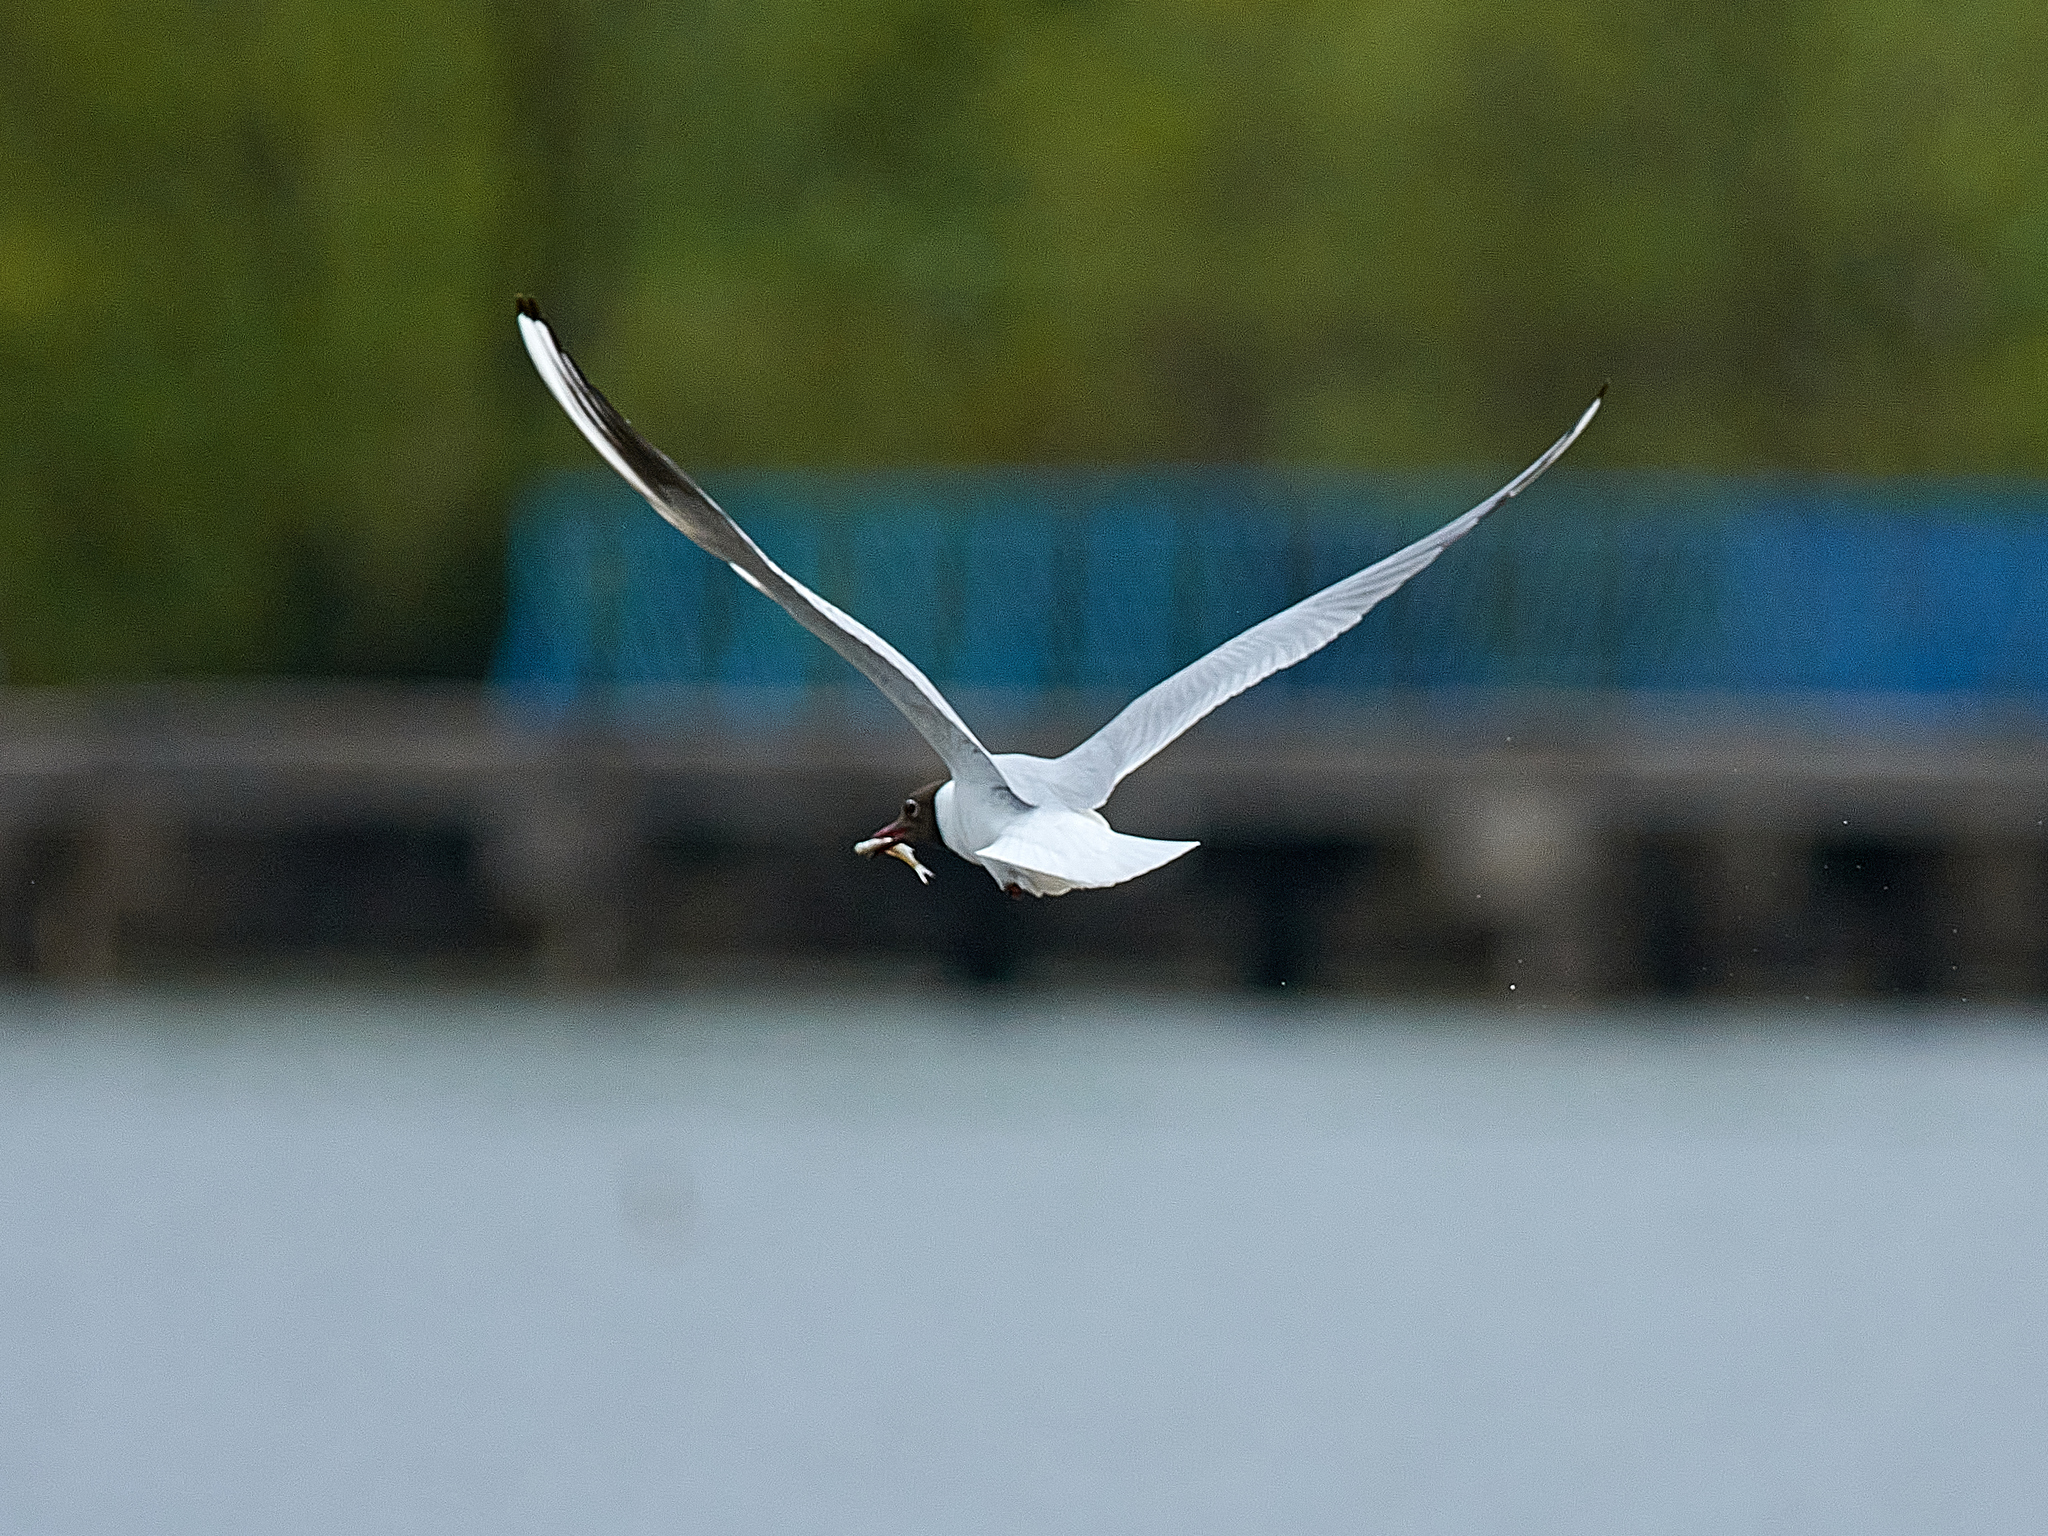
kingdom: Animalia
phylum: Chordata
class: Aves
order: Charadriiformes
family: Laridae
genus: Chroicocephalus
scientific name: Chroicocephalus ridibundus
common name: Black-headed gull
